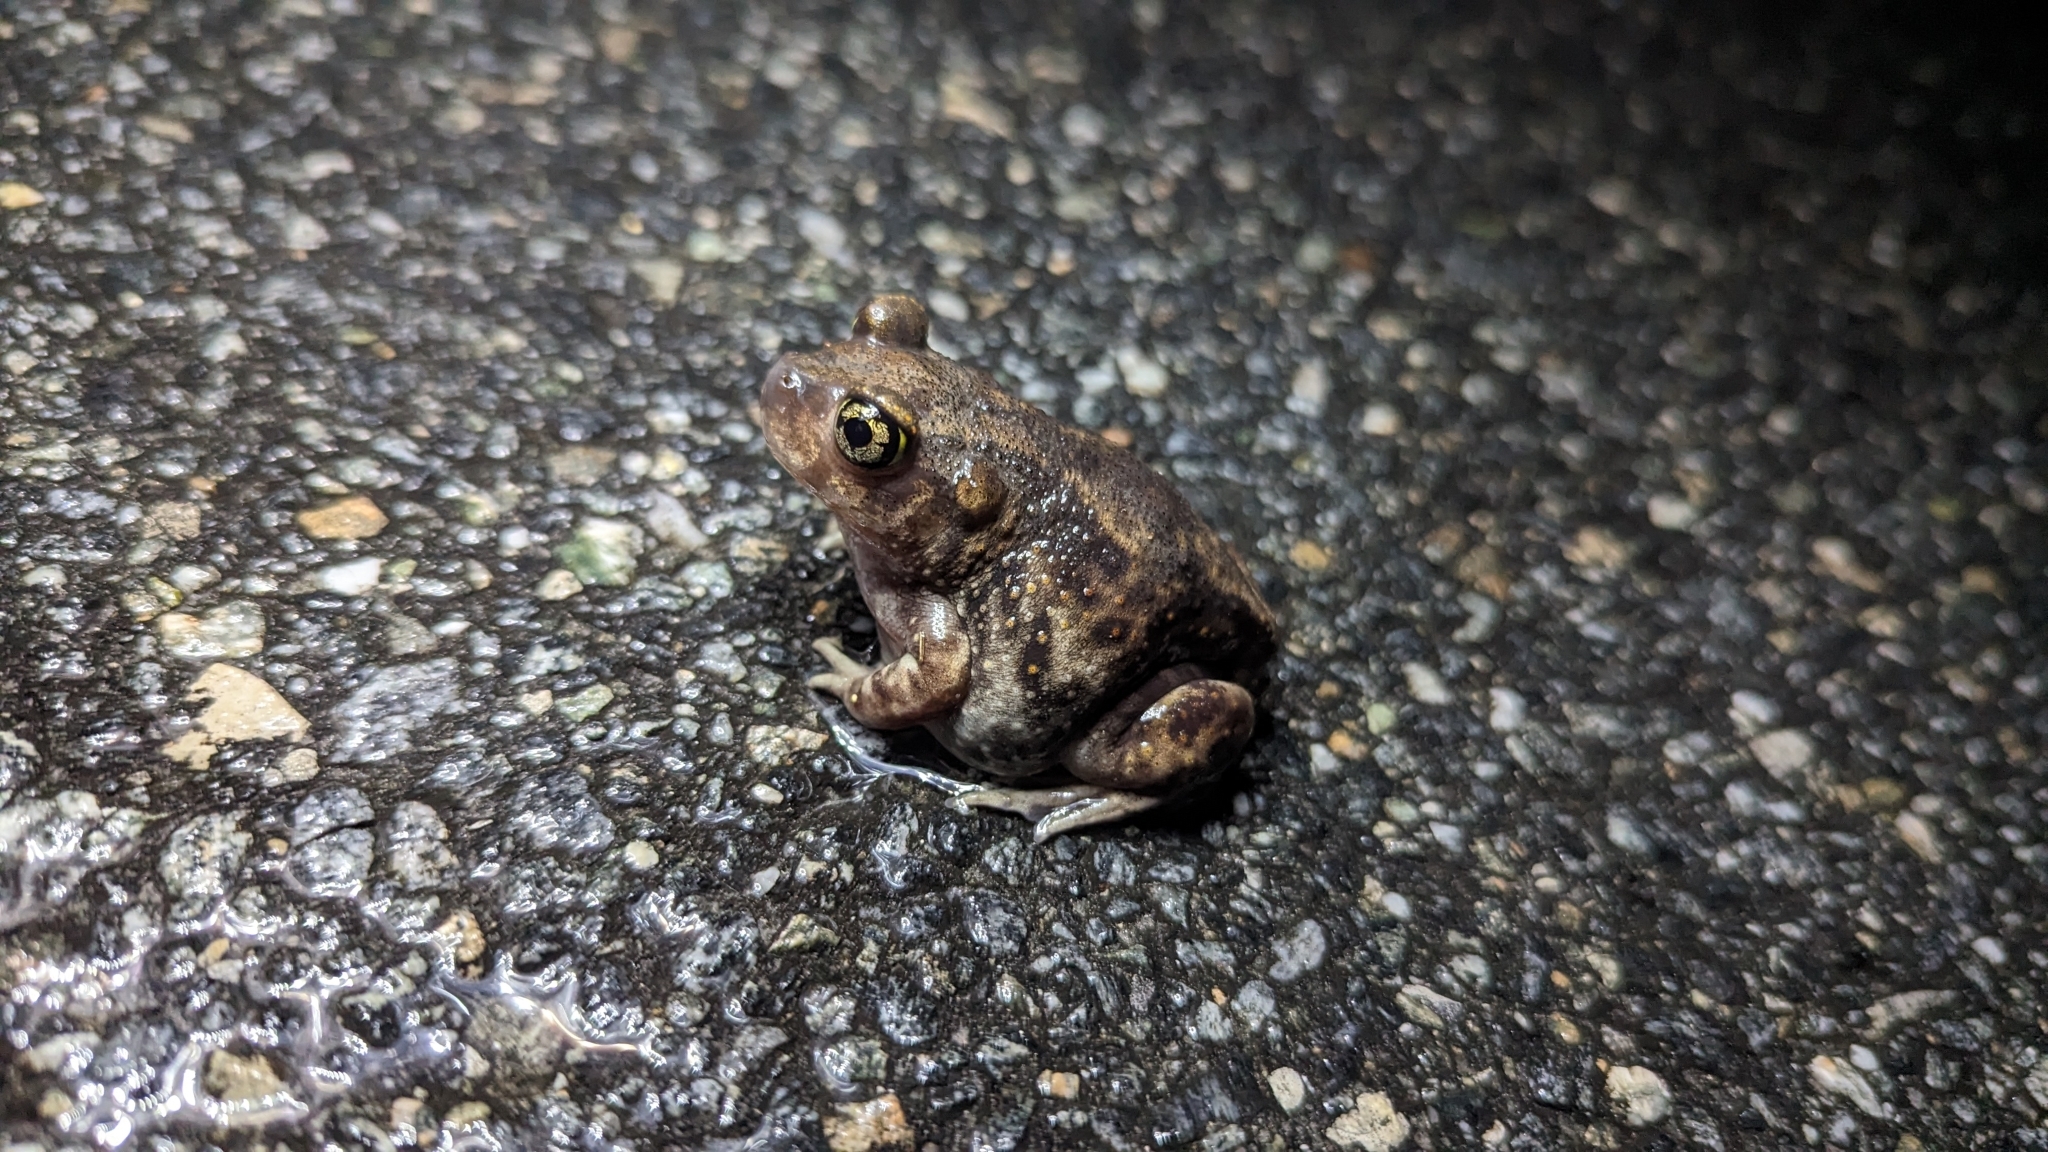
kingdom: Animalia
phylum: Chordata
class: Amphibia
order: Anura
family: Scaphiopodidae
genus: Scaphiopus
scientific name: Scaphiopus holbrookii
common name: Eastern spadefoot toad
